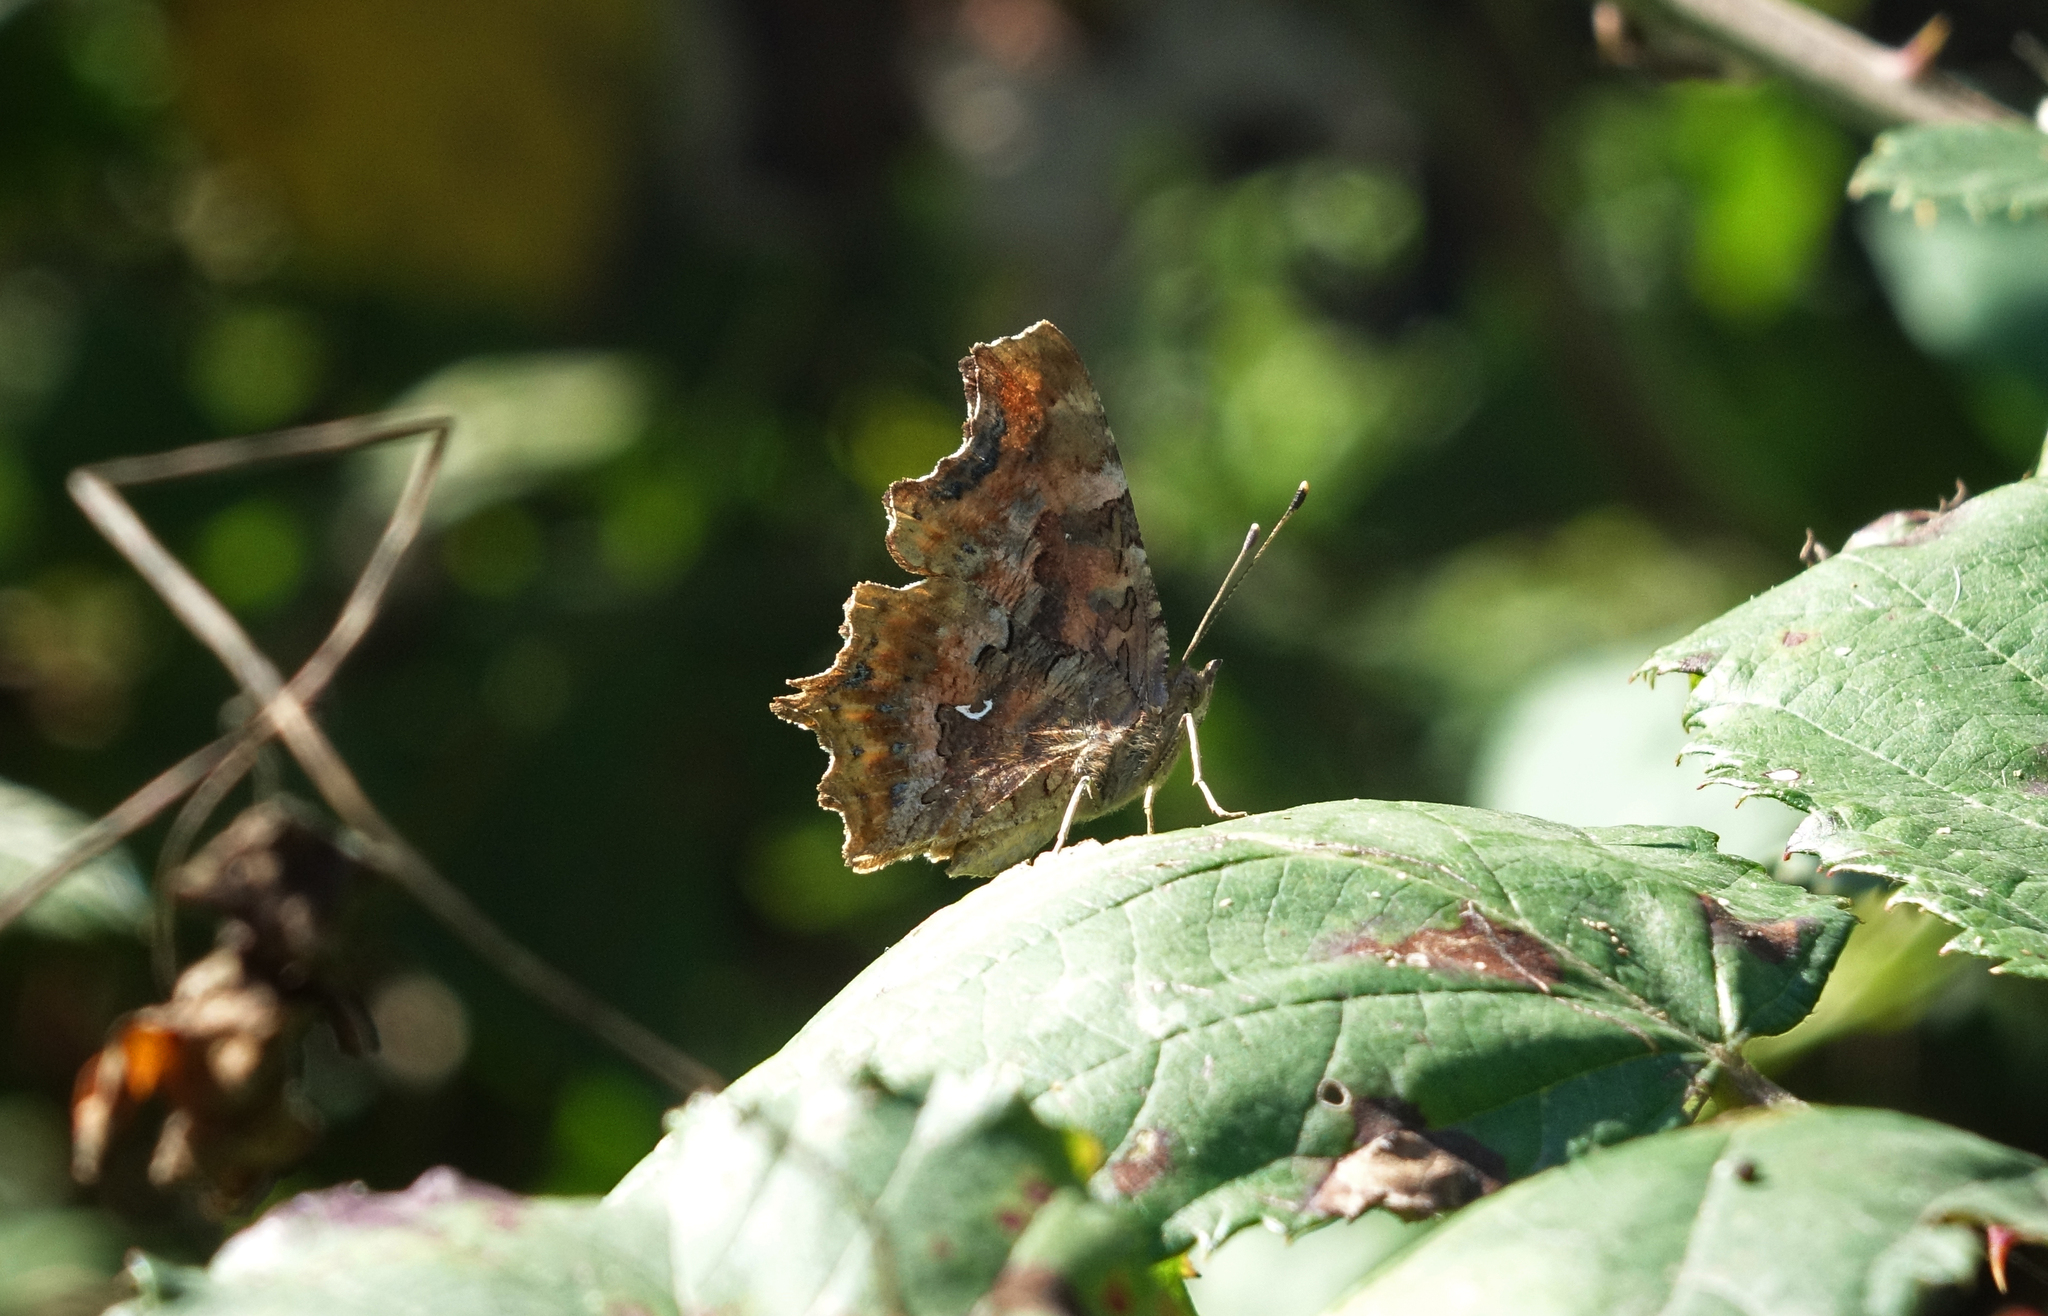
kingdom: Animalia
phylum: Arthropoda
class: Insecta
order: Lepidoptera
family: Nymphalidae
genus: Polygonia
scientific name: Polygonia c-album
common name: Comma
